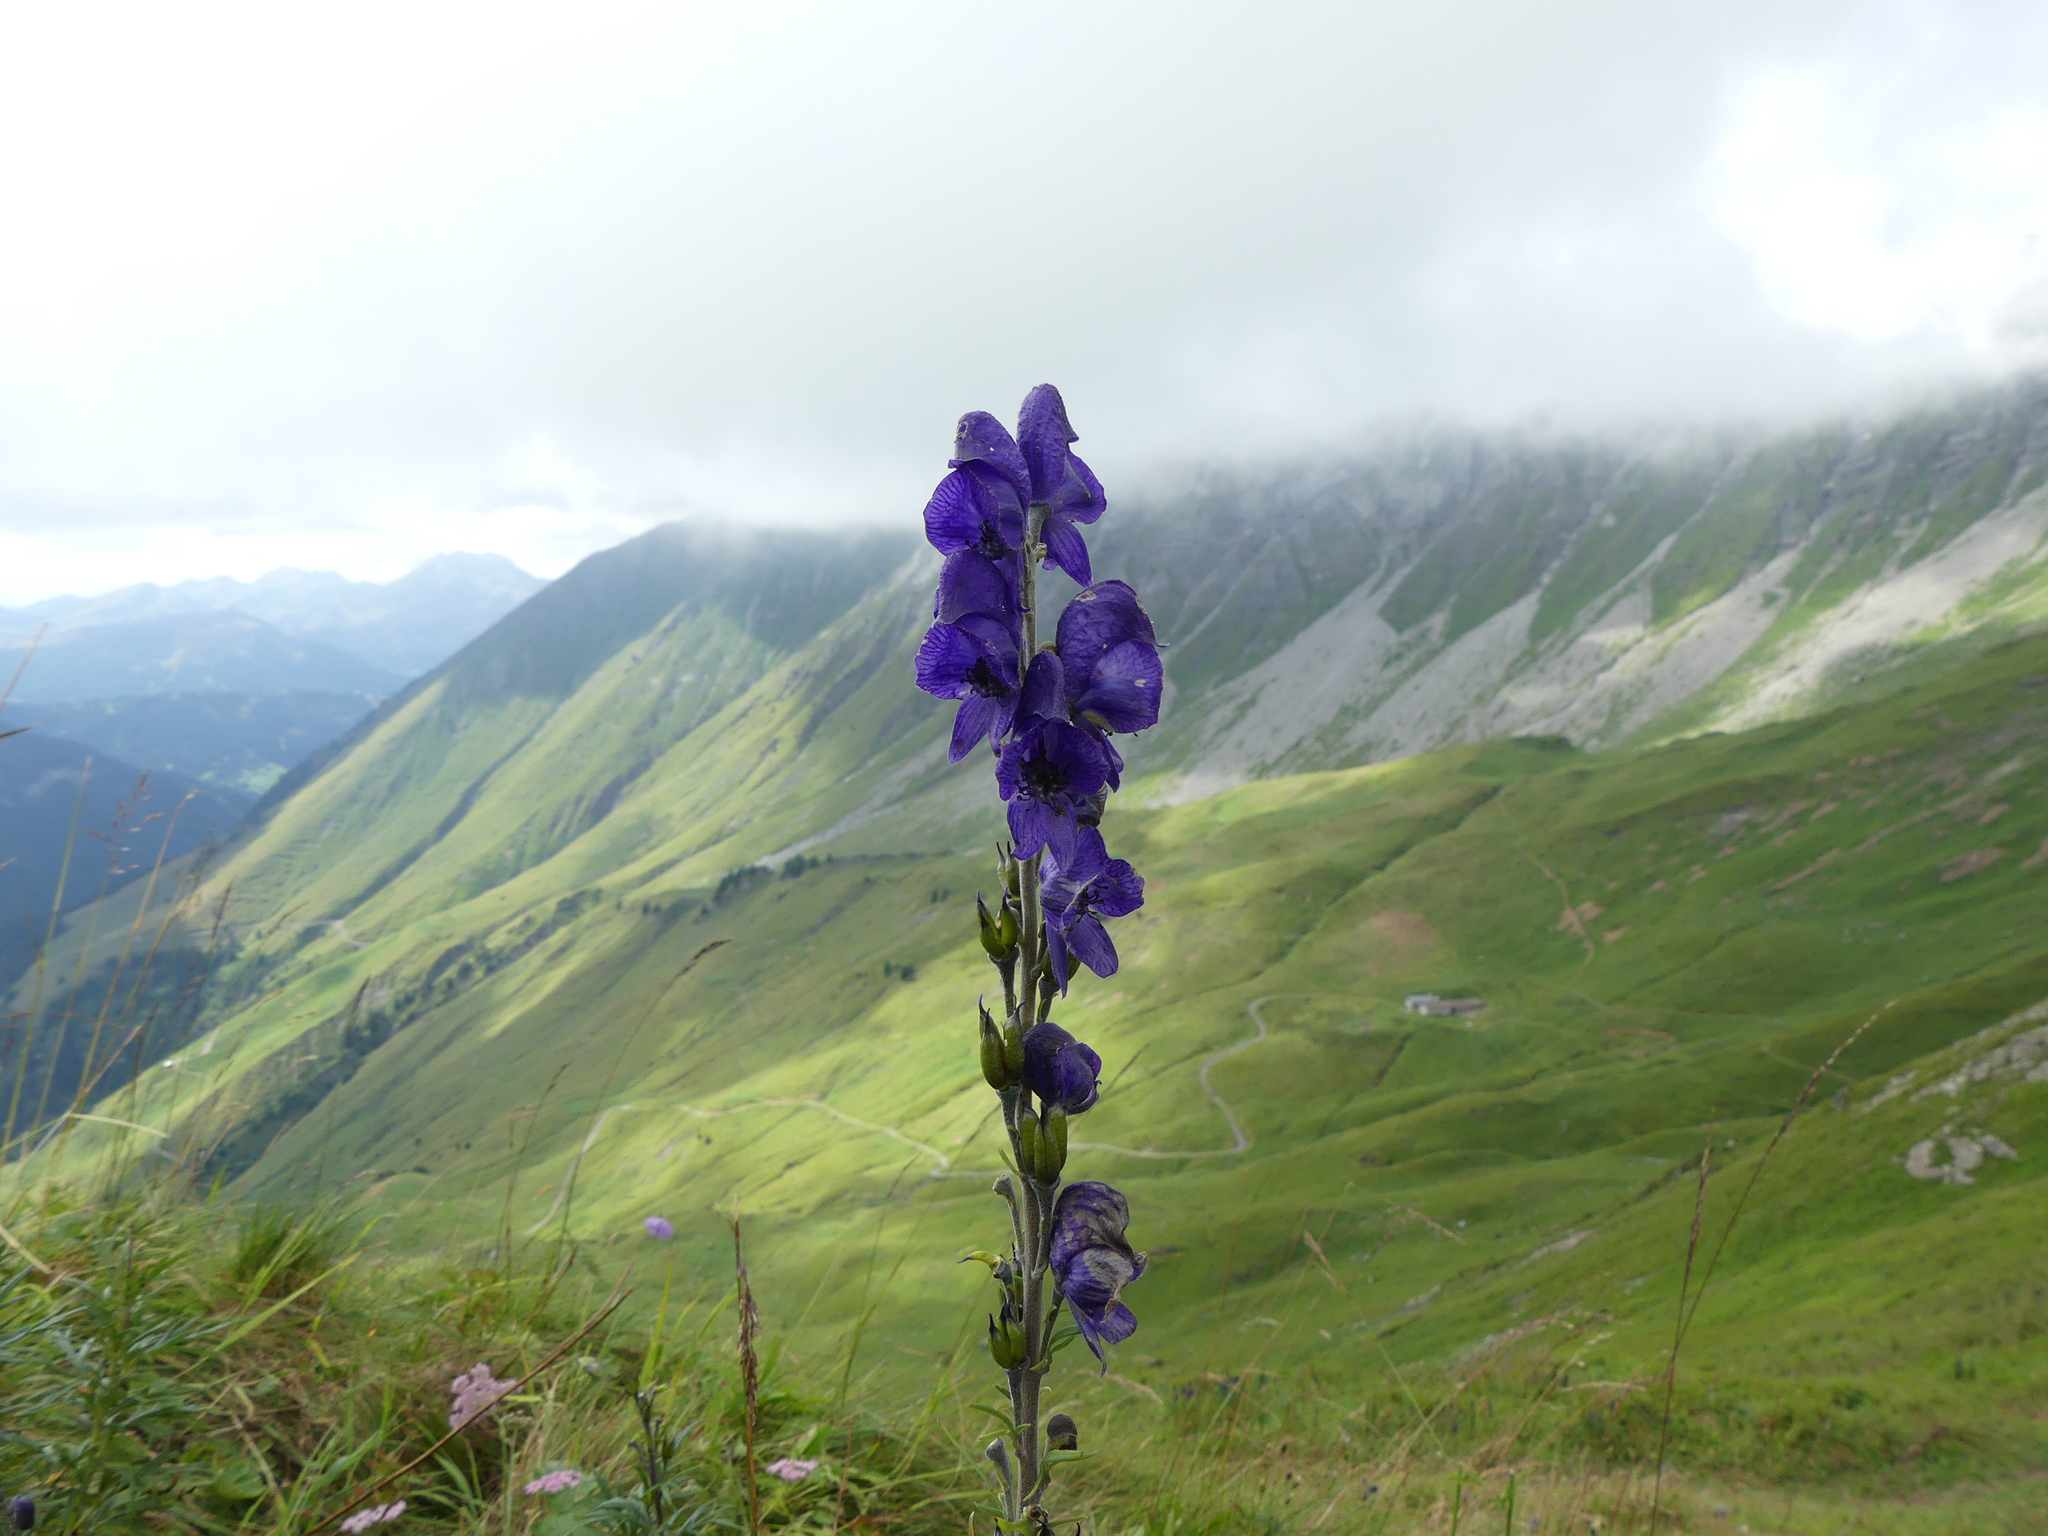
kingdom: Plantae
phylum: Tracheophyta
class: Magnoliopsida
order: Ranunculales
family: Ranunculaceae
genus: Aconitum
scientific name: Aconitum napellus
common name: Garden monkshood
